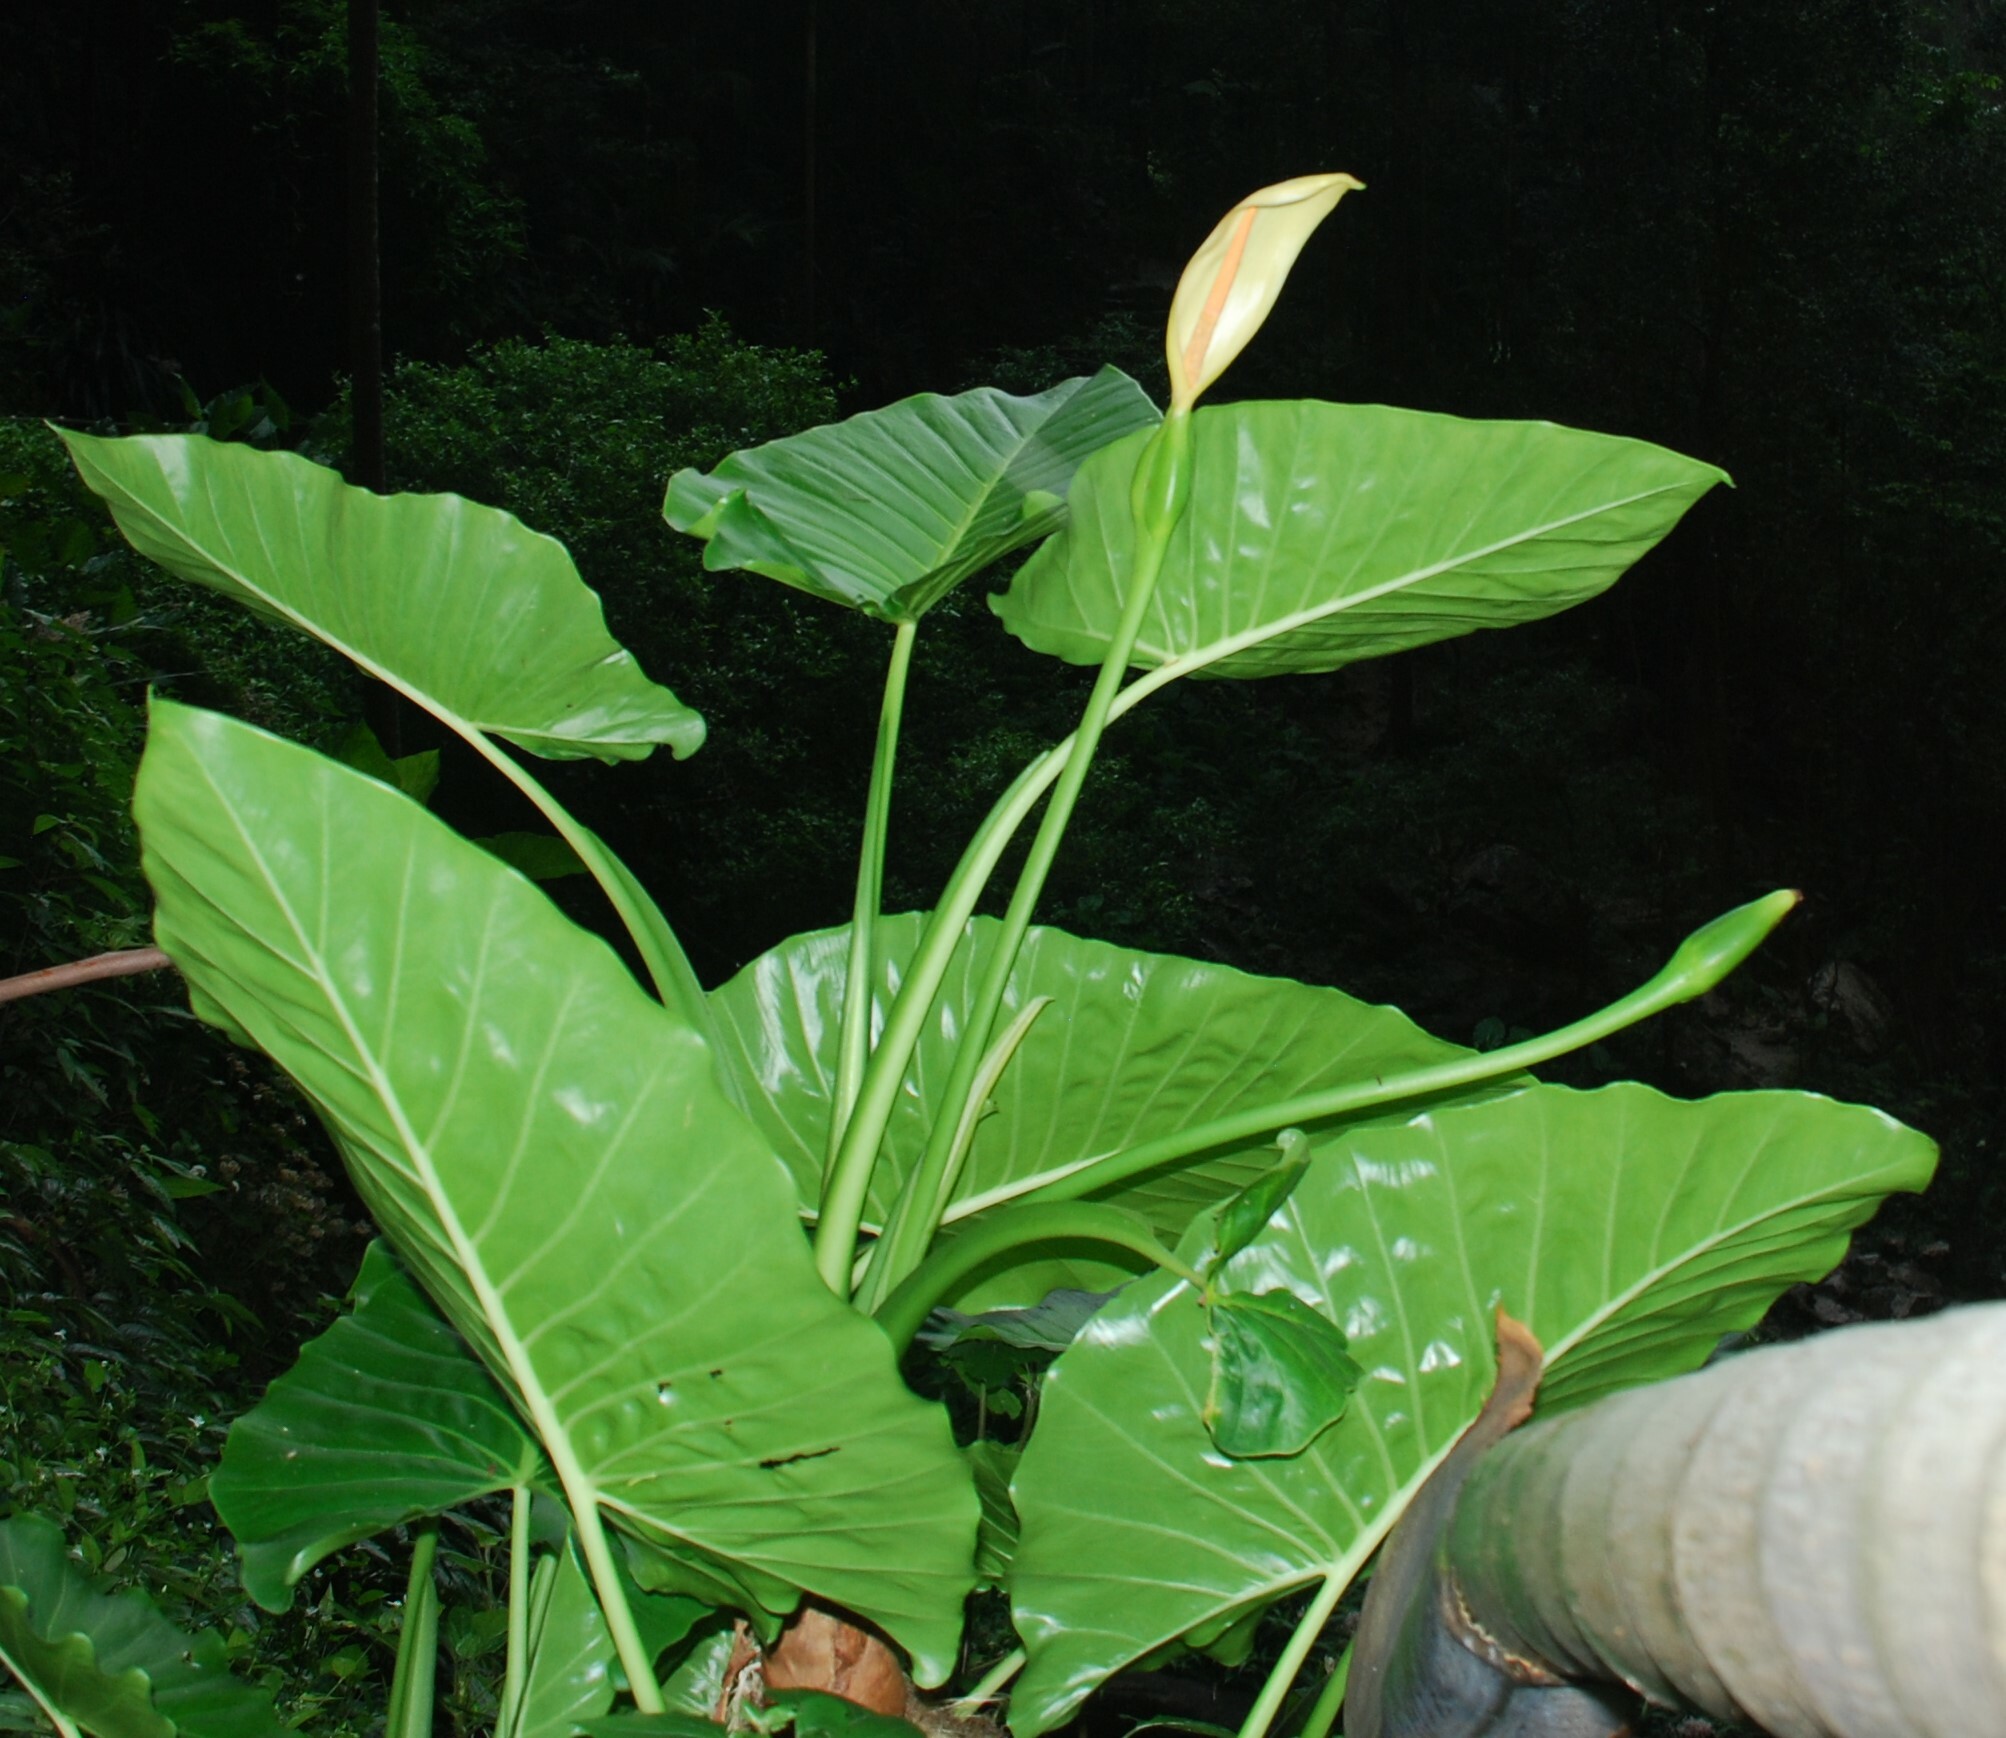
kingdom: Plantae
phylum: Tracheophyta
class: Liliopsida
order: Alismatales
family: Araceae
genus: Alocasia
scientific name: Alocasia brisbanensis
